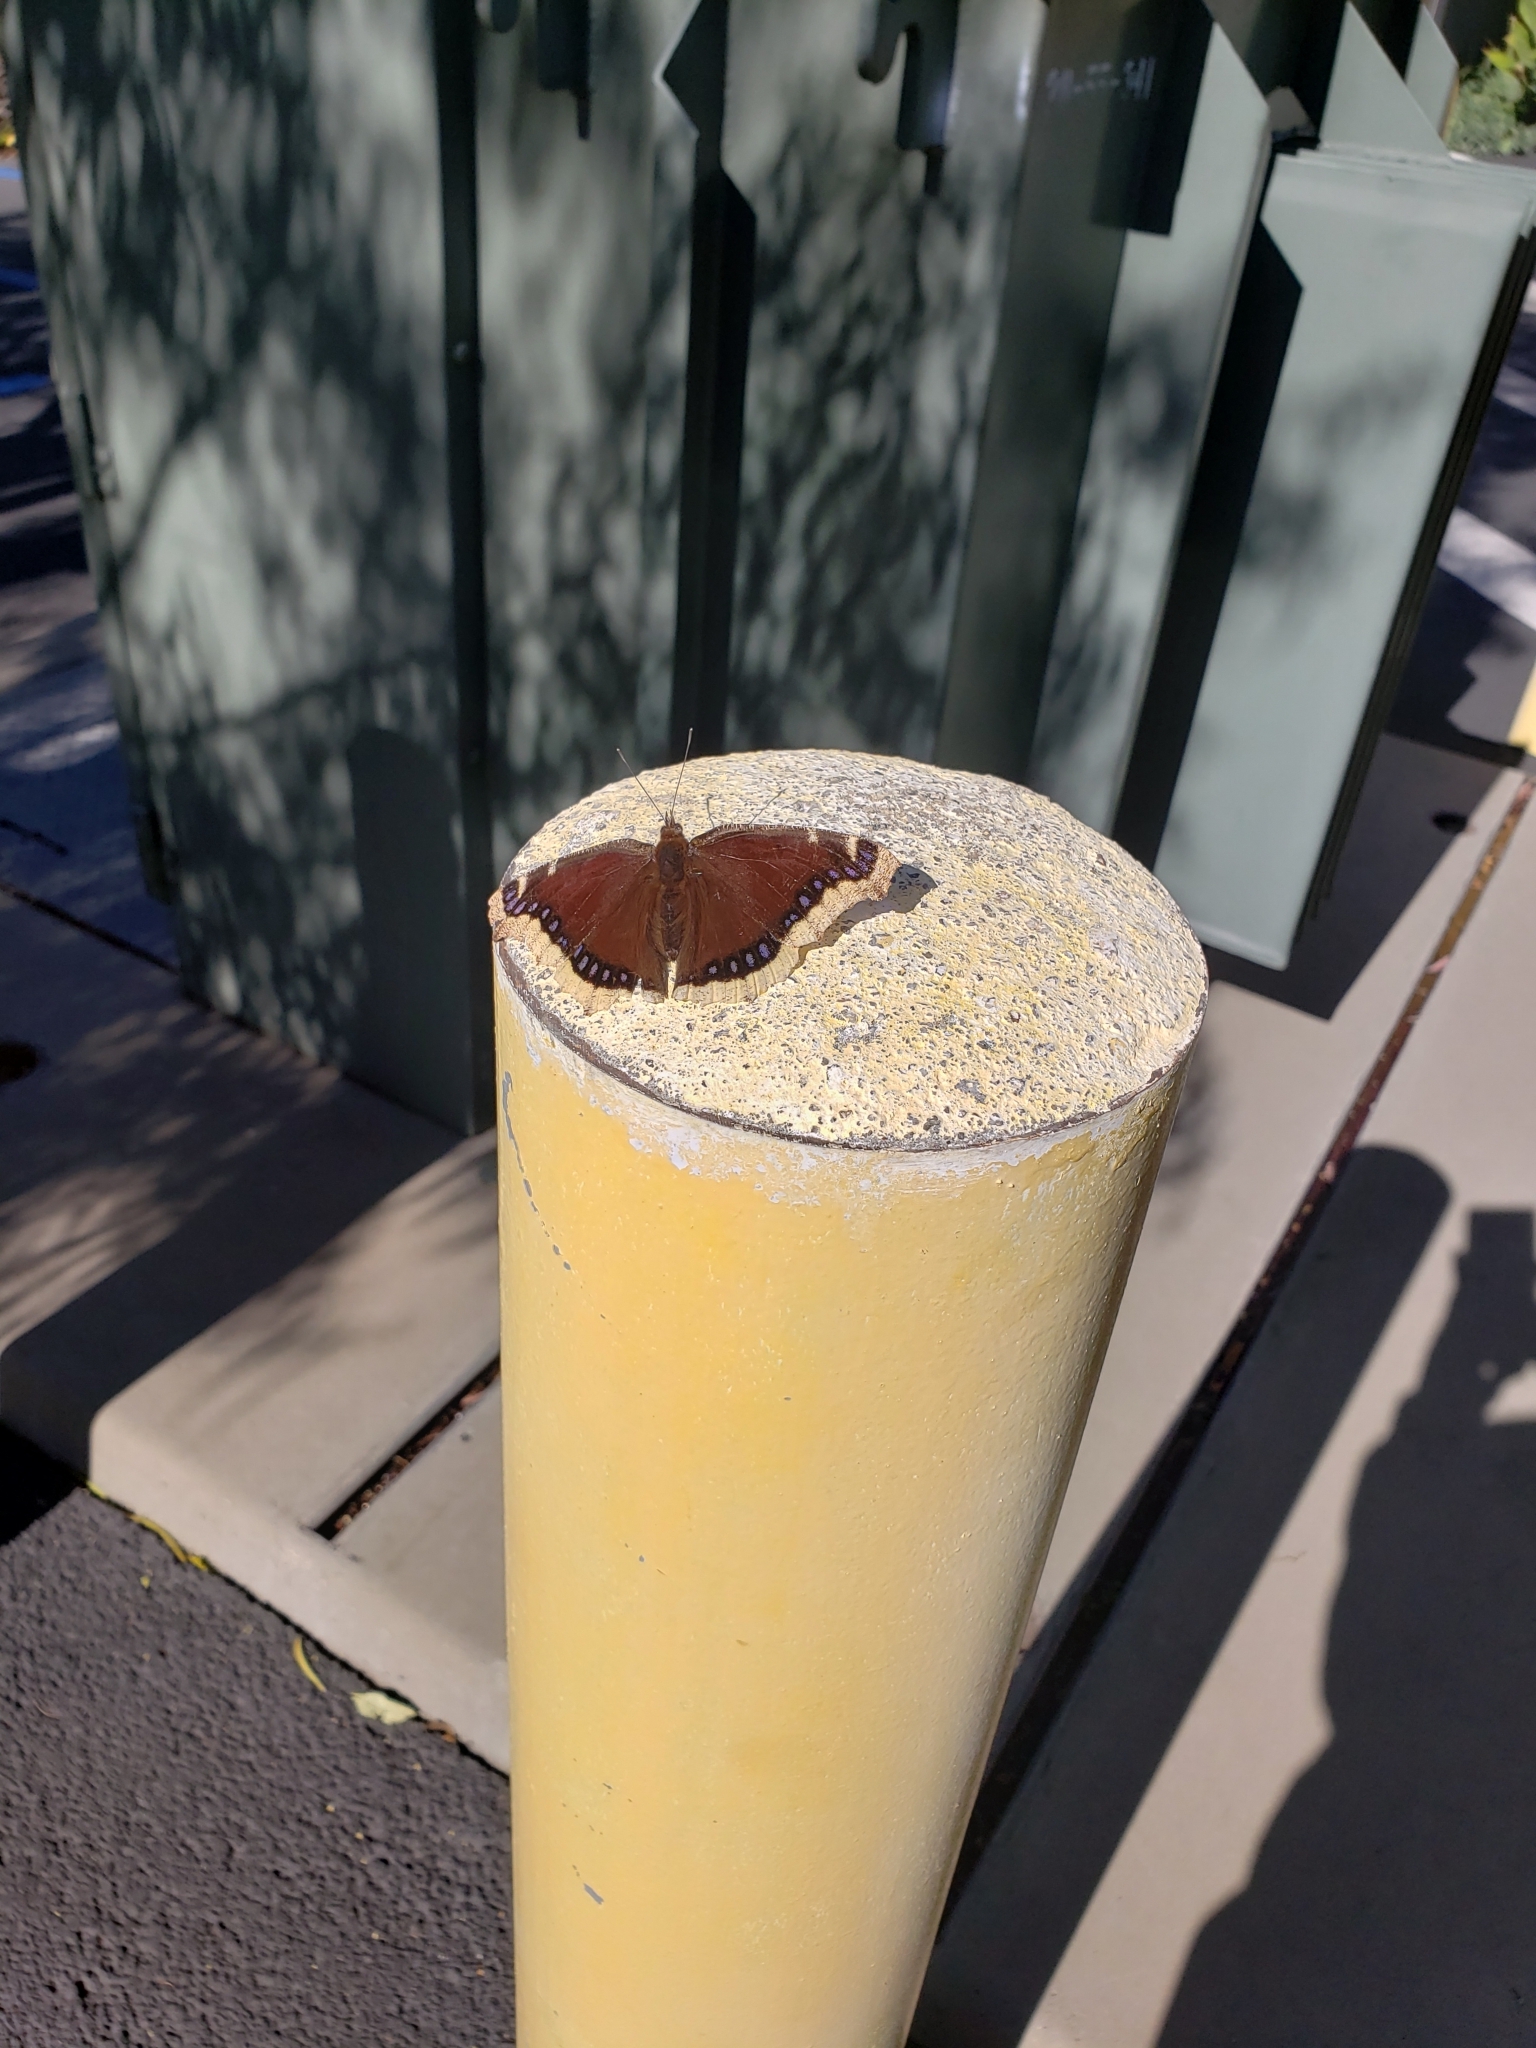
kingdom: Animalia
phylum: Arthropoda
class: Insecta
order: Lepidoptera
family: Nymphalidae
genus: Nymphalis
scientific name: Nymphalis antiopa
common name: Camberwell beauty
